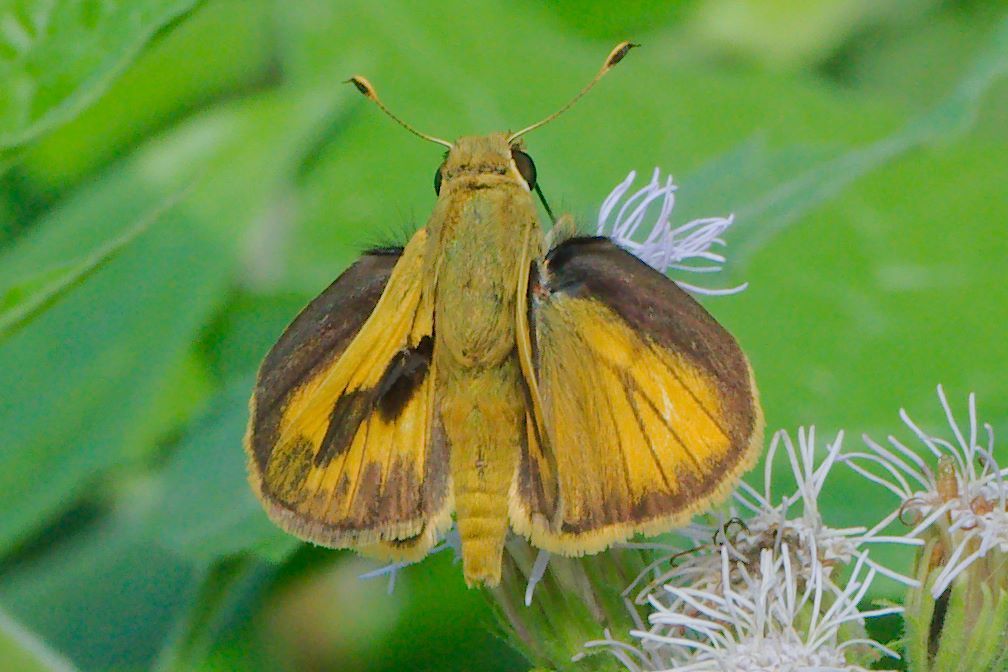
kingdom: Animalia
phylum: Arthropoda
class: Insecta
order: Lepidoptera
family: Hesperiidae
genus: Polites
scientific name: Polites vibex
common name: Whirlabout
